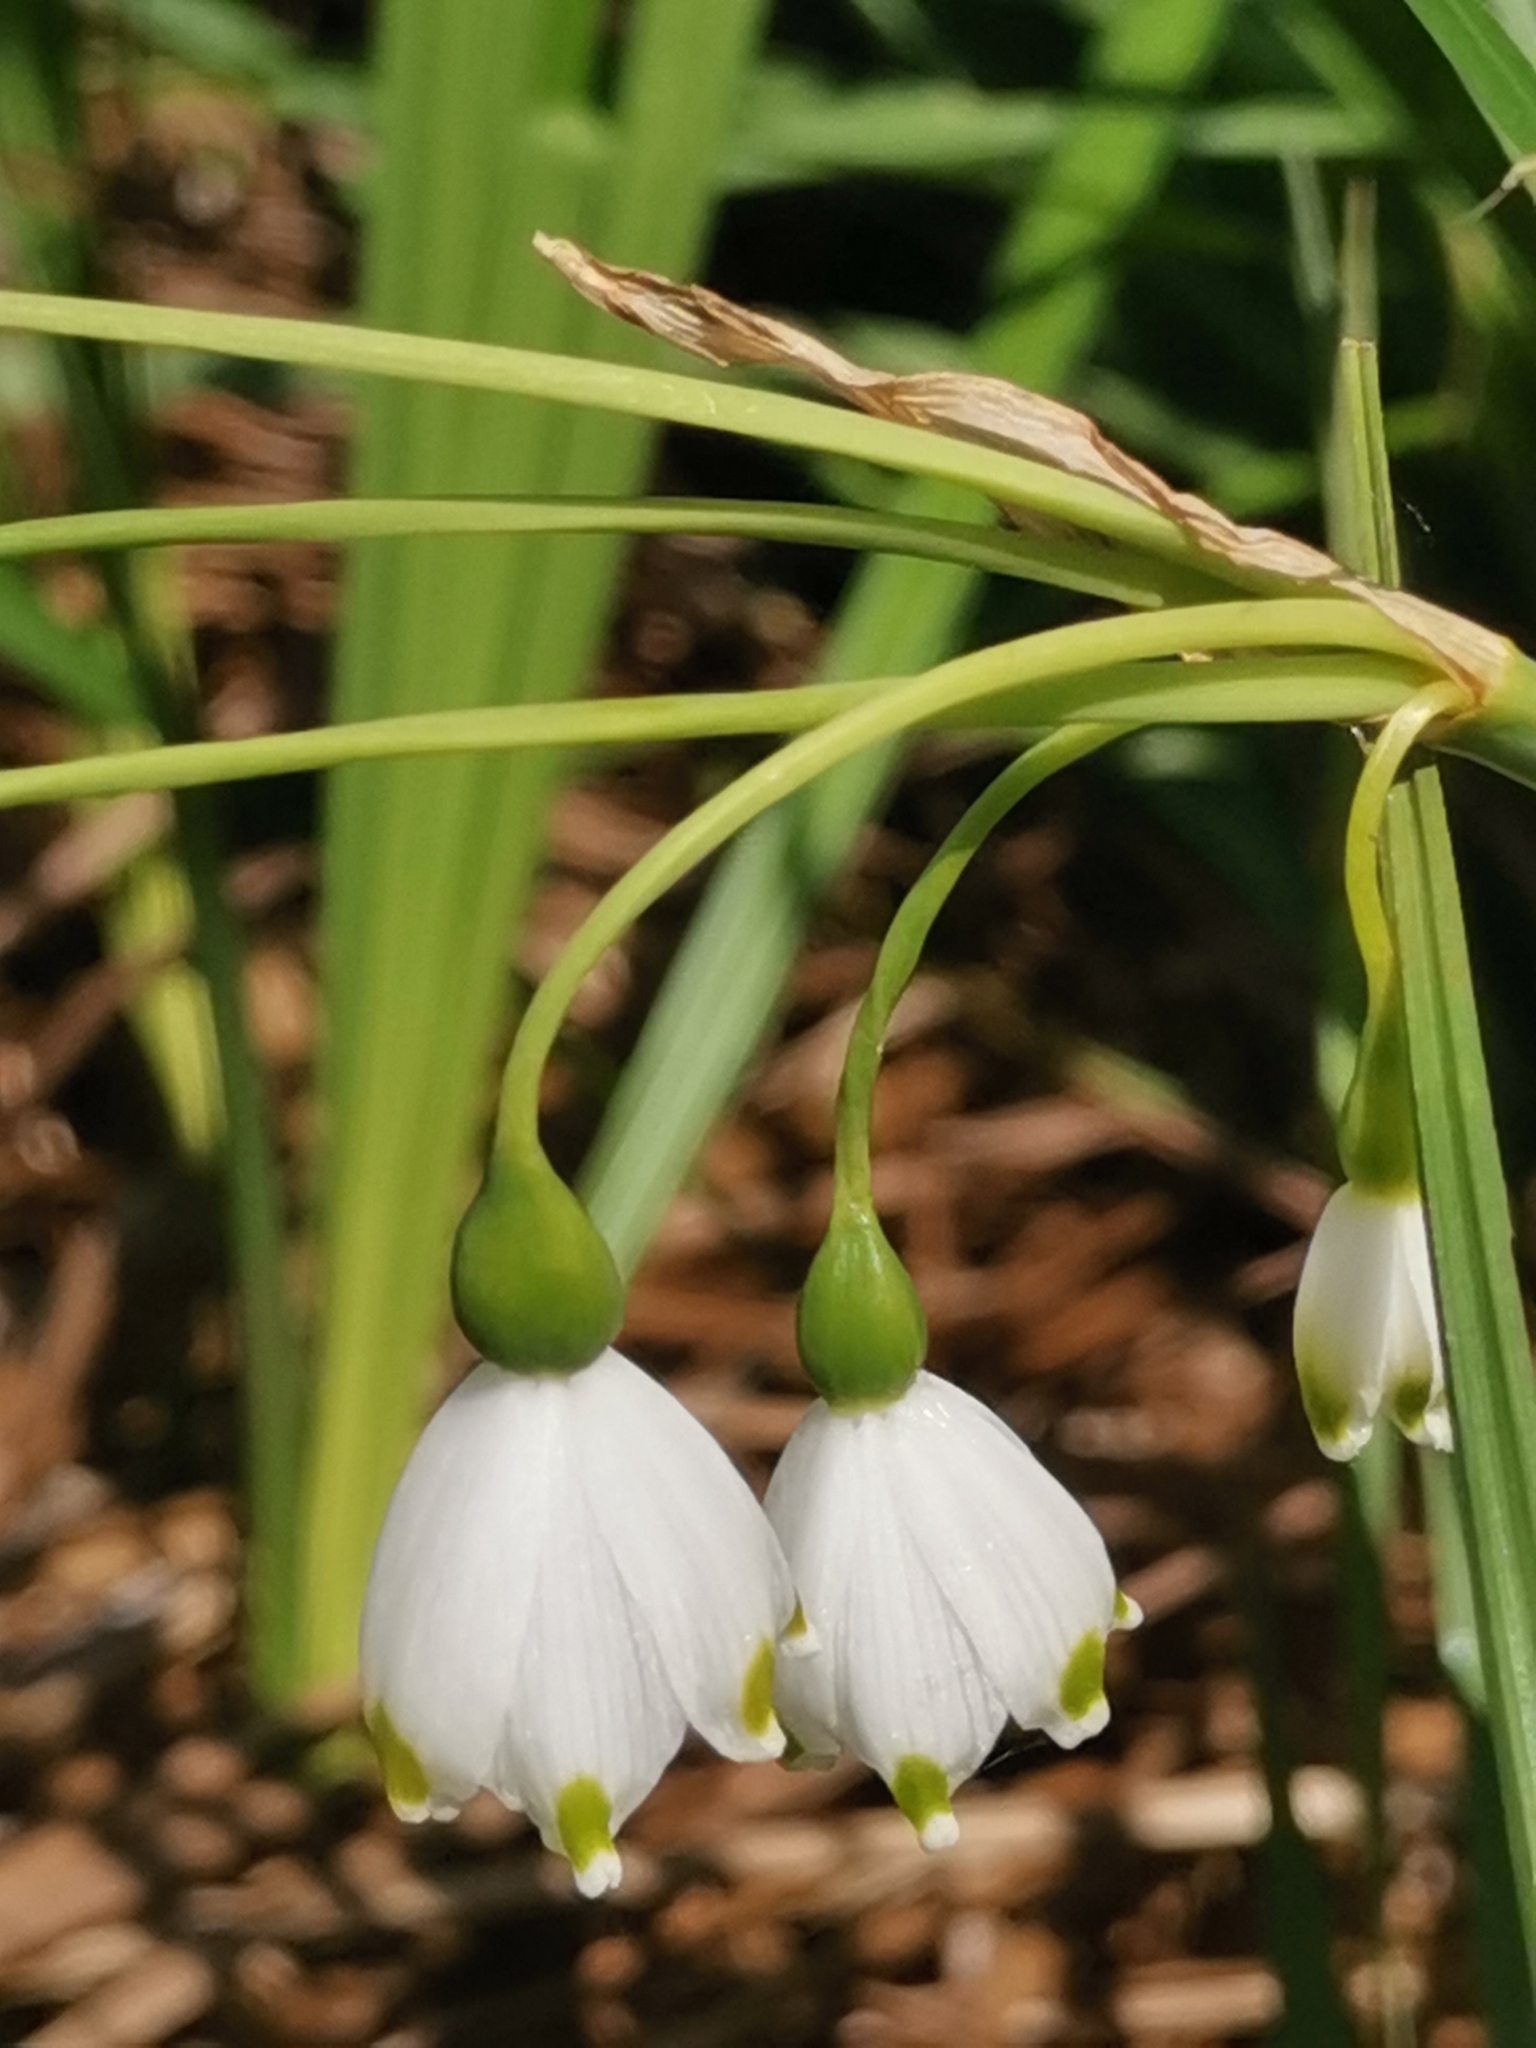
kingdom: Plantae
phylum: Tracheophyta
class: Liliopsida
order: Asparagales
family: Amaryllidaceae
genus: Leucojum
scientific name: Leucojum aestivum
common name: Summer snowflake
